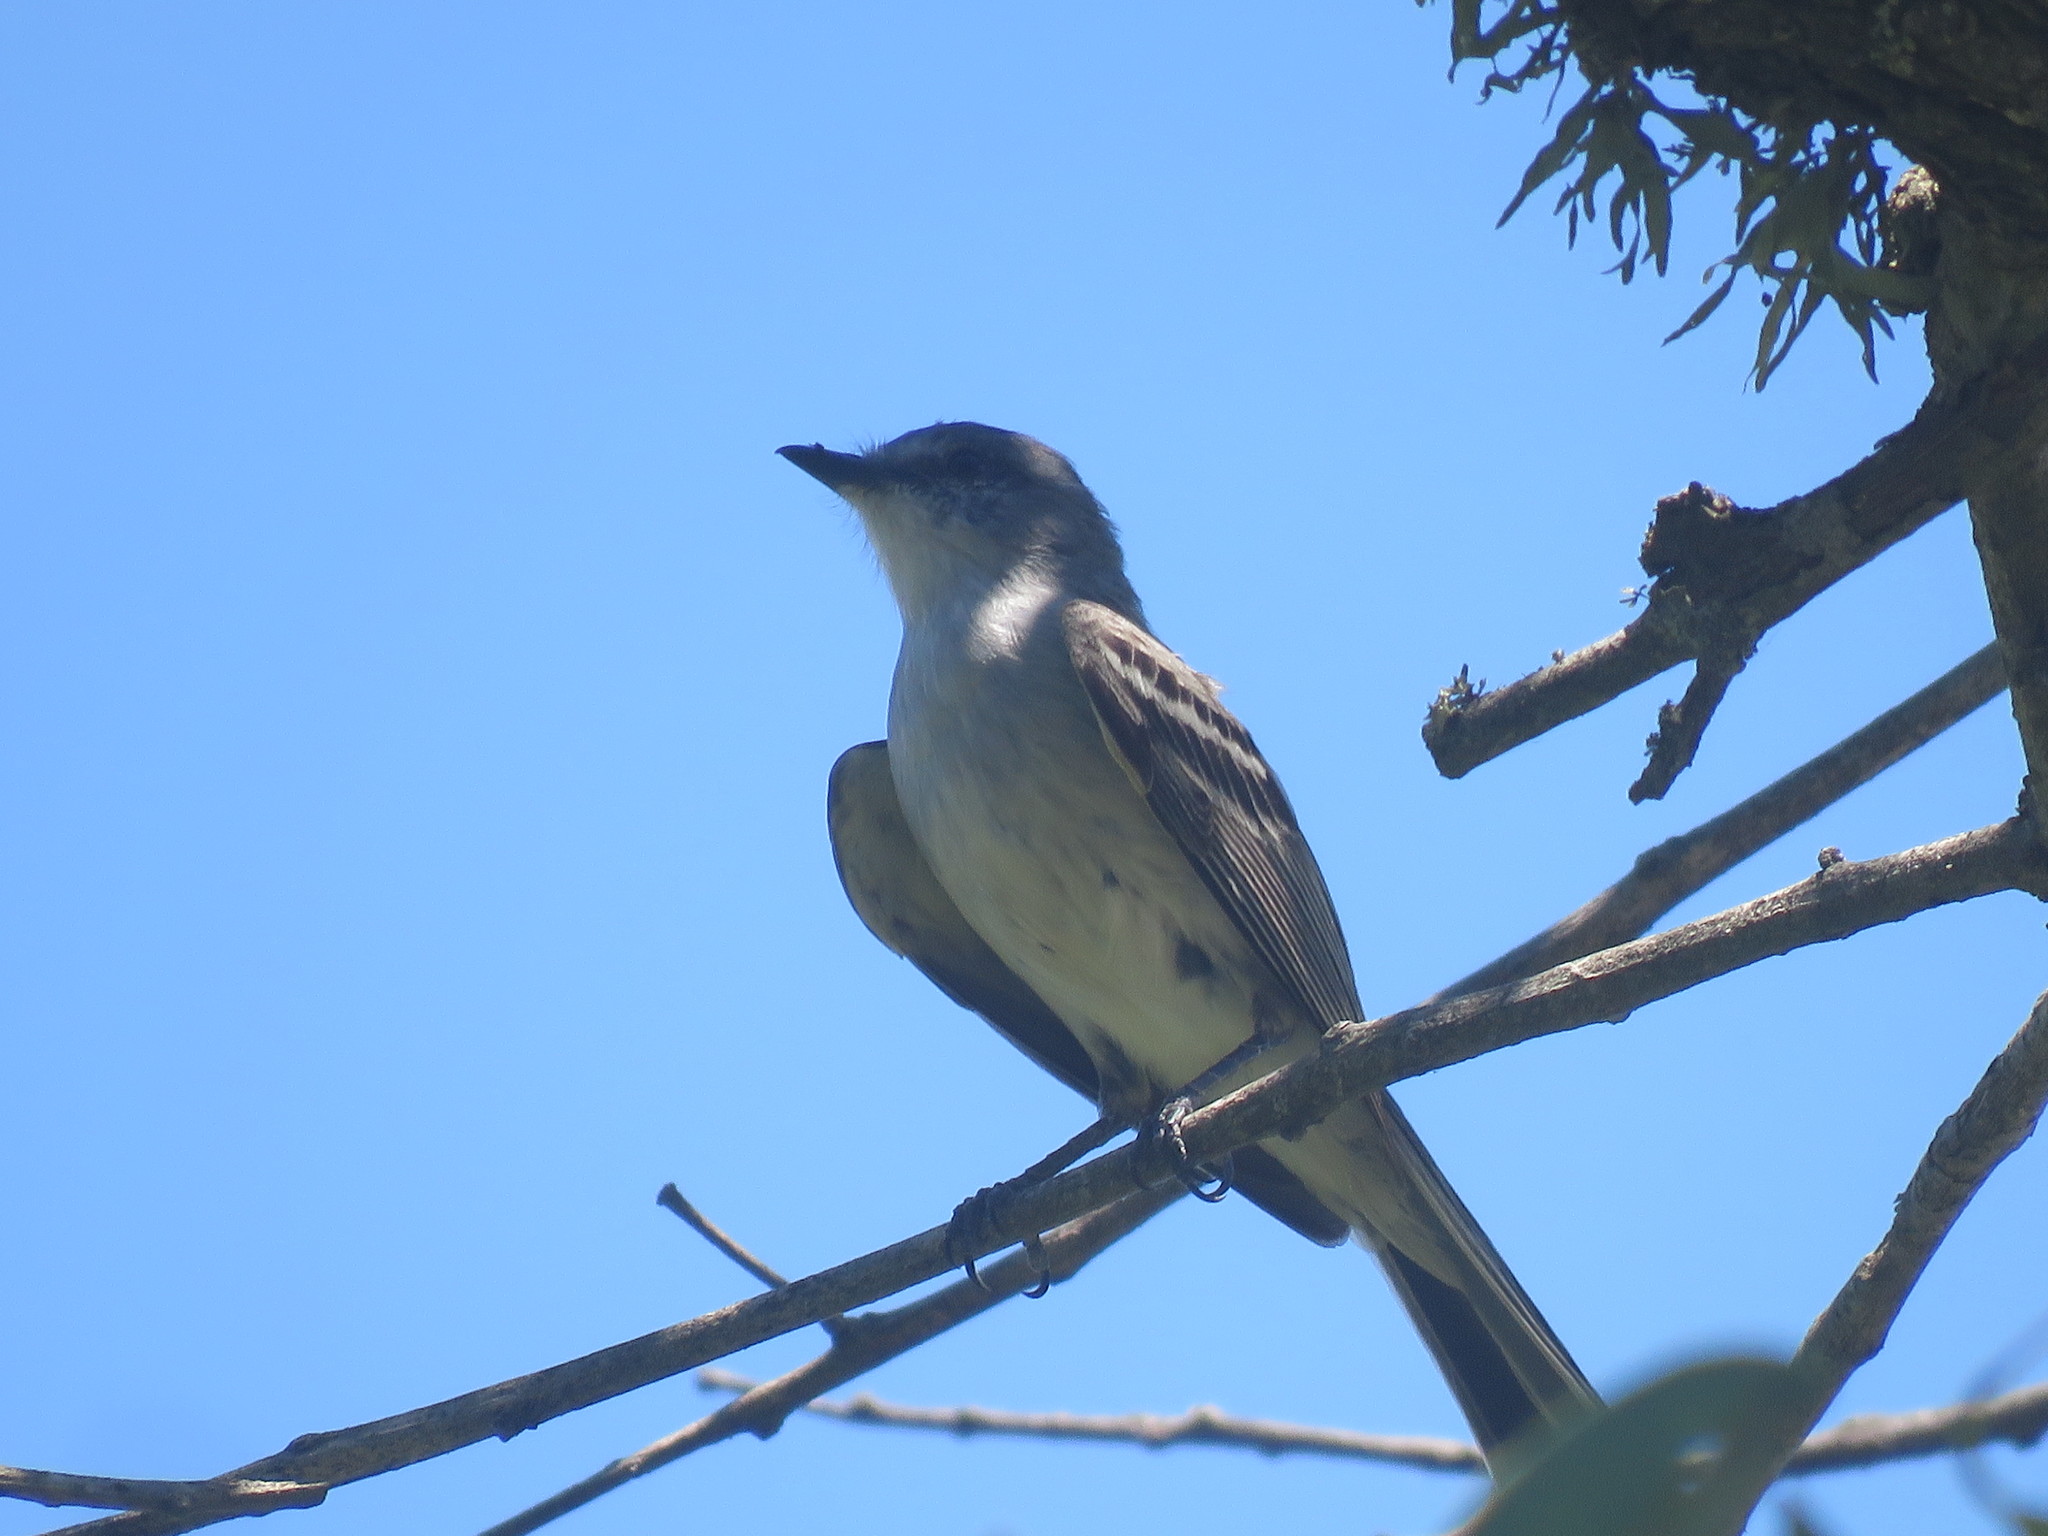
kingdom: Animalia
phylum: Chordata
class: Aves
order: Passeriformes
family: Tyrannidae
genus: Suiriri
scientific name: Suiriri suiriri
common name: Suiriri flycatcher
